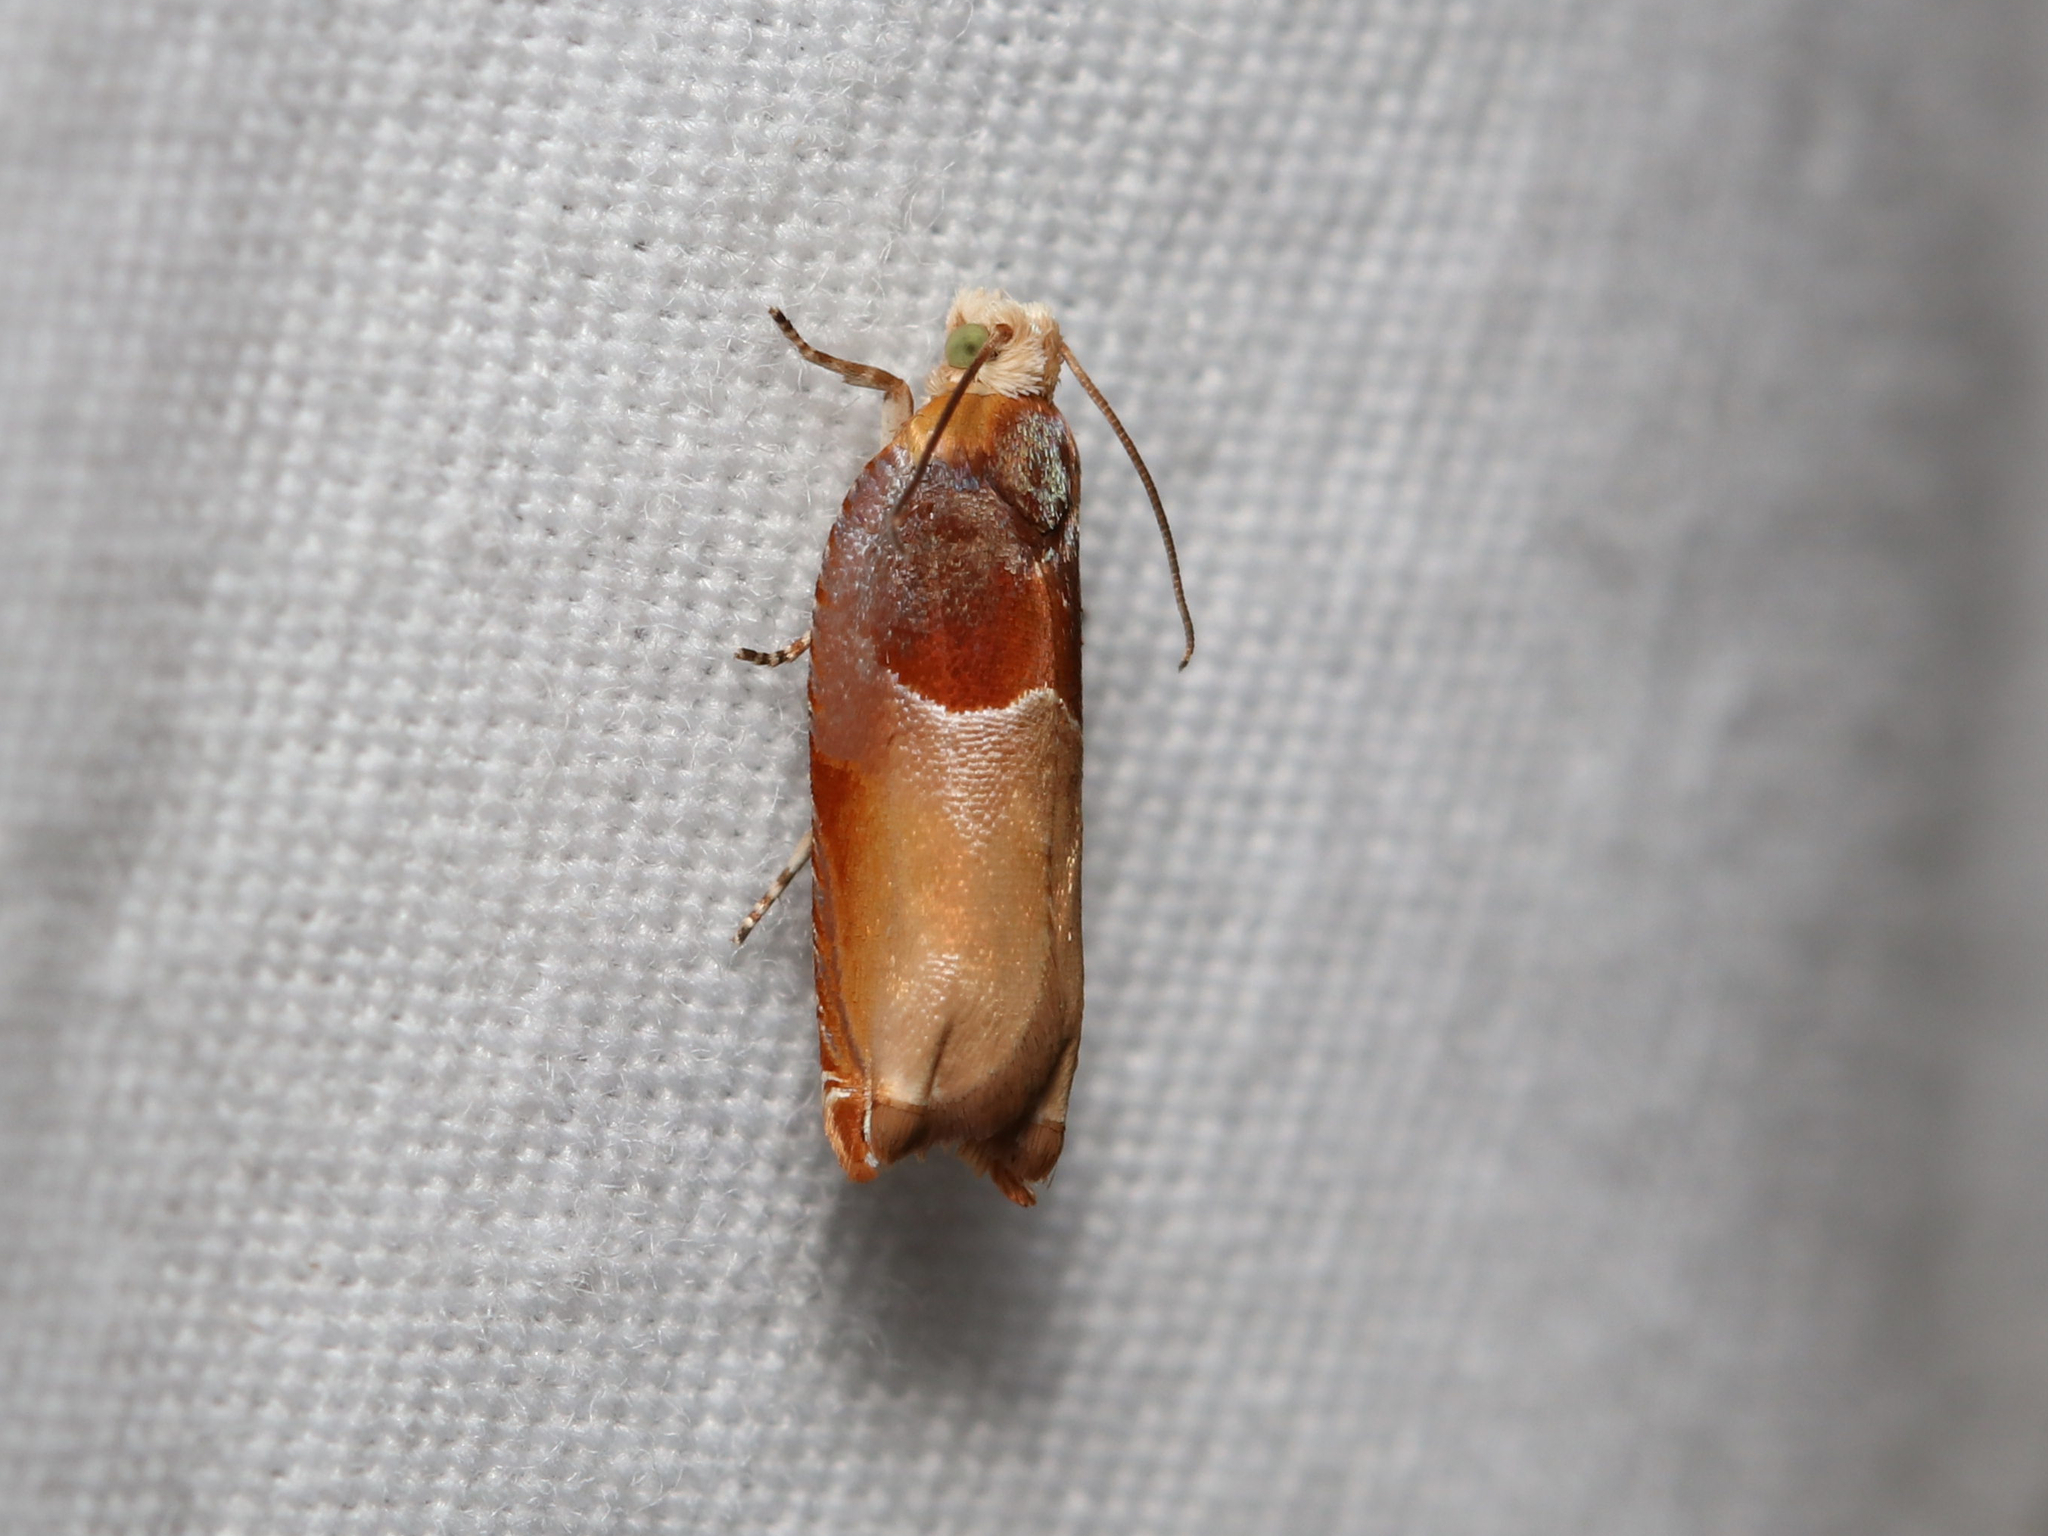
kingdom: Animalia
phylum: Arthropoda
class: Insecta
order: Lepidoptera
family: Tortricidae
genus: Ancylis
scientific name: Ancylis divisana
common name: Two-toned ancylis moth
